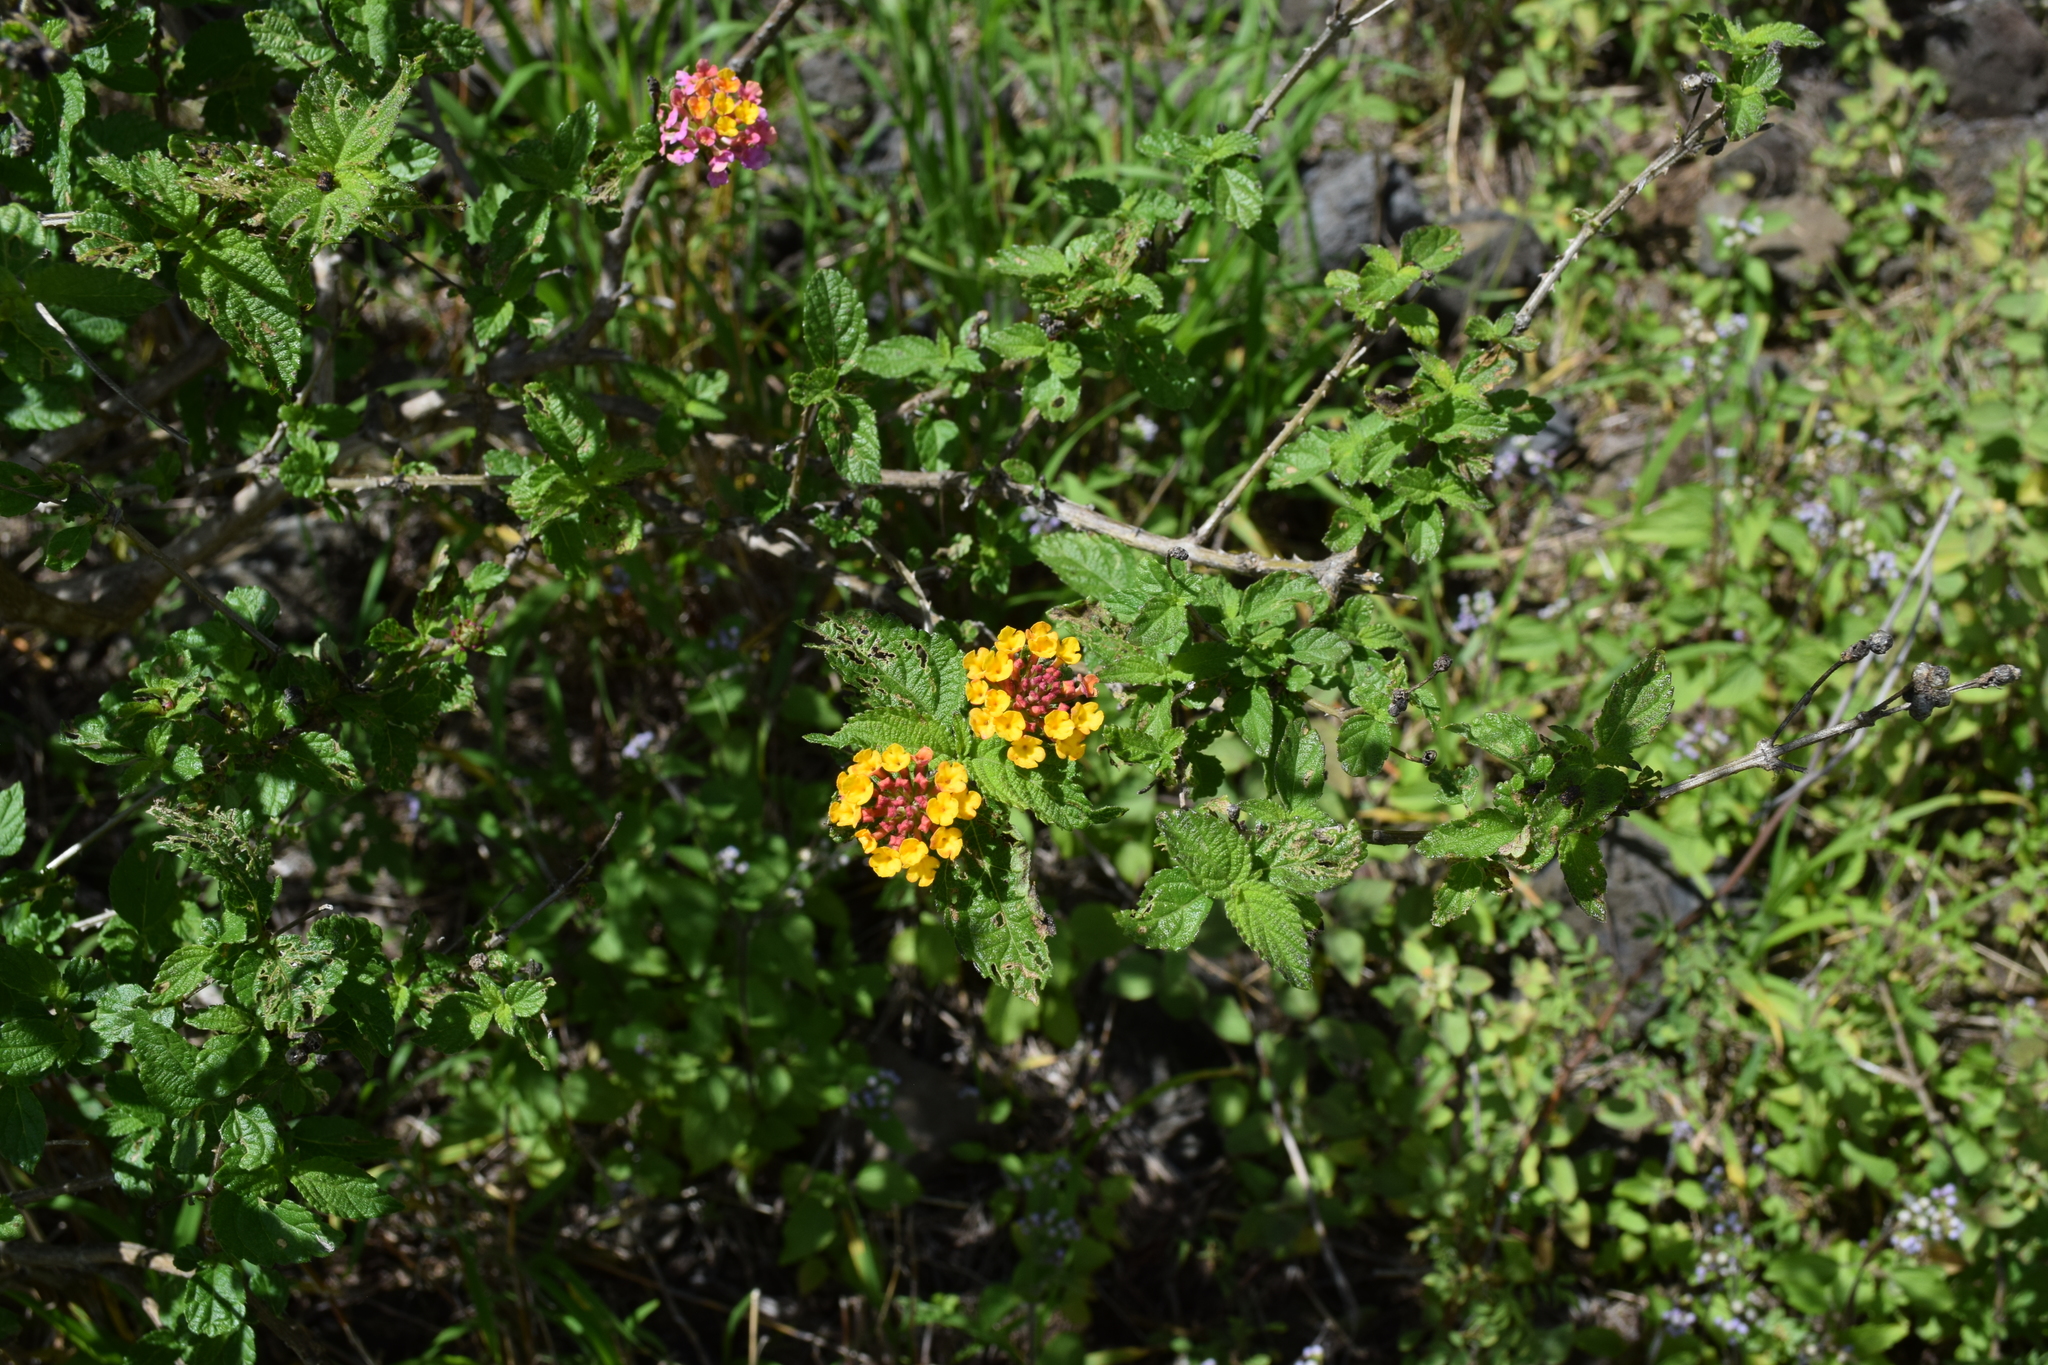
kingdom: Plantae
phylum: Tracheophyta
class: Magnoliopsida
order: Lamiales
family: Verbenaceae
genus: Lantana
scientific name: Lantana camara
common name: Lantana
